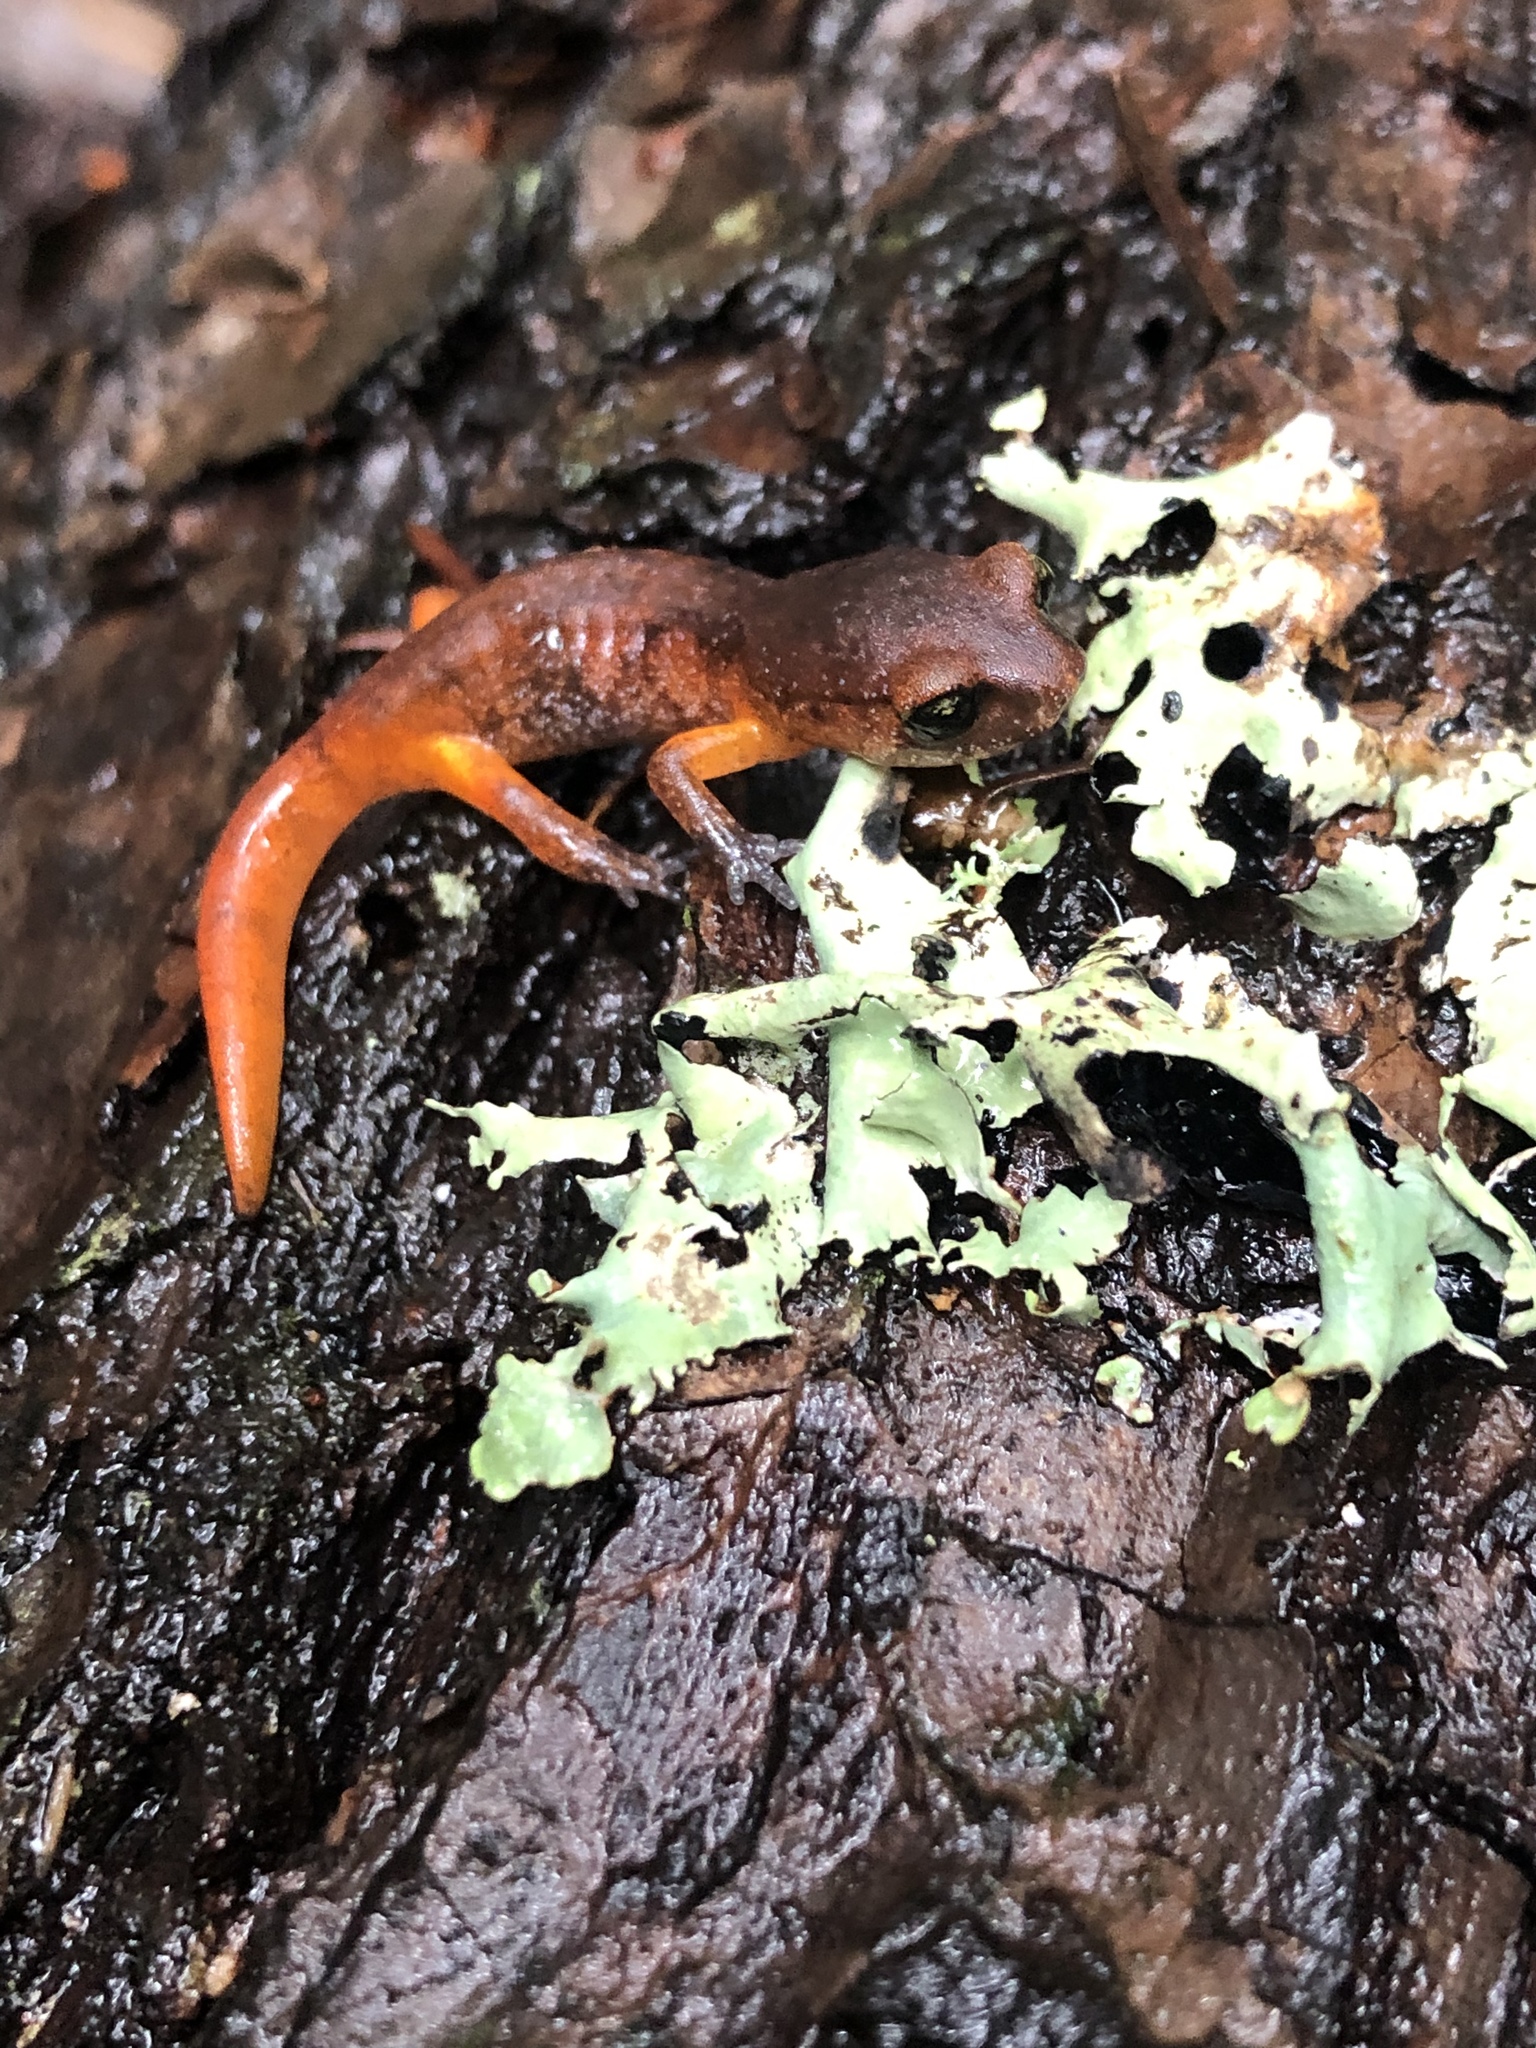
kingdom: Animalia
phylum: Chordata
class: Amphibia
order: Caudata
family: Plethodontidae
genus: Ensatina
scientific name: Ensatina eschscholtzii
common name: Ensatina
